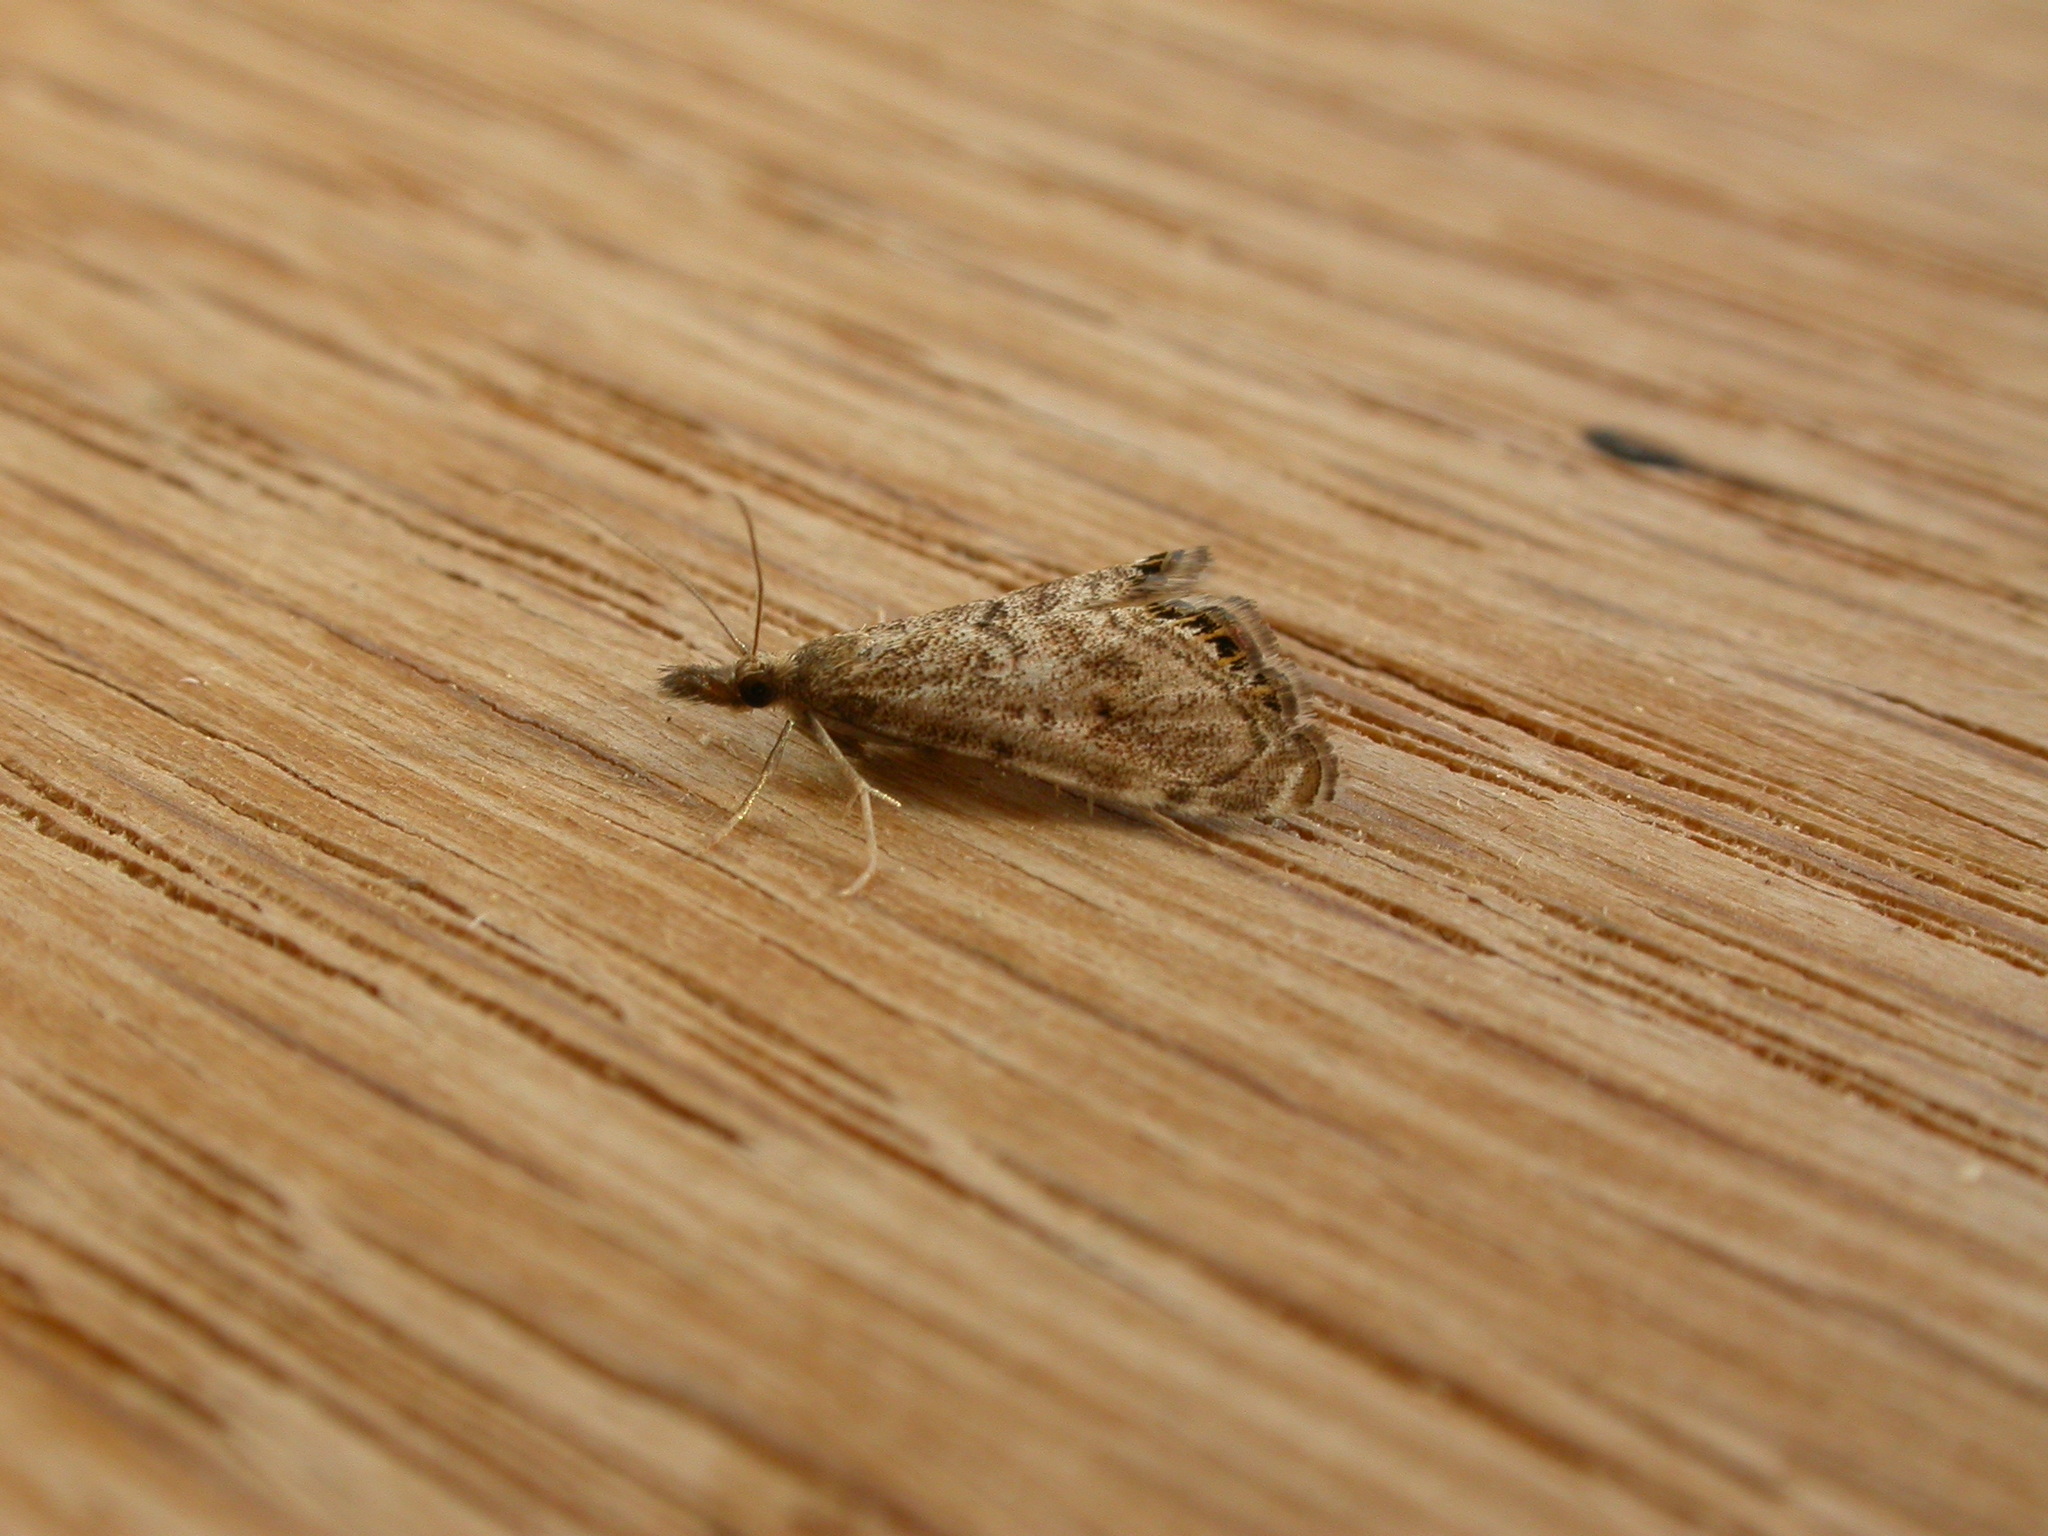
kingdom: Animalia
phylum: Arthropoda
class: Insecta
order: Lepidoptera
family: Crambidae
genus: Glaucocharis
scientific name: Glaucocharis dilatella
